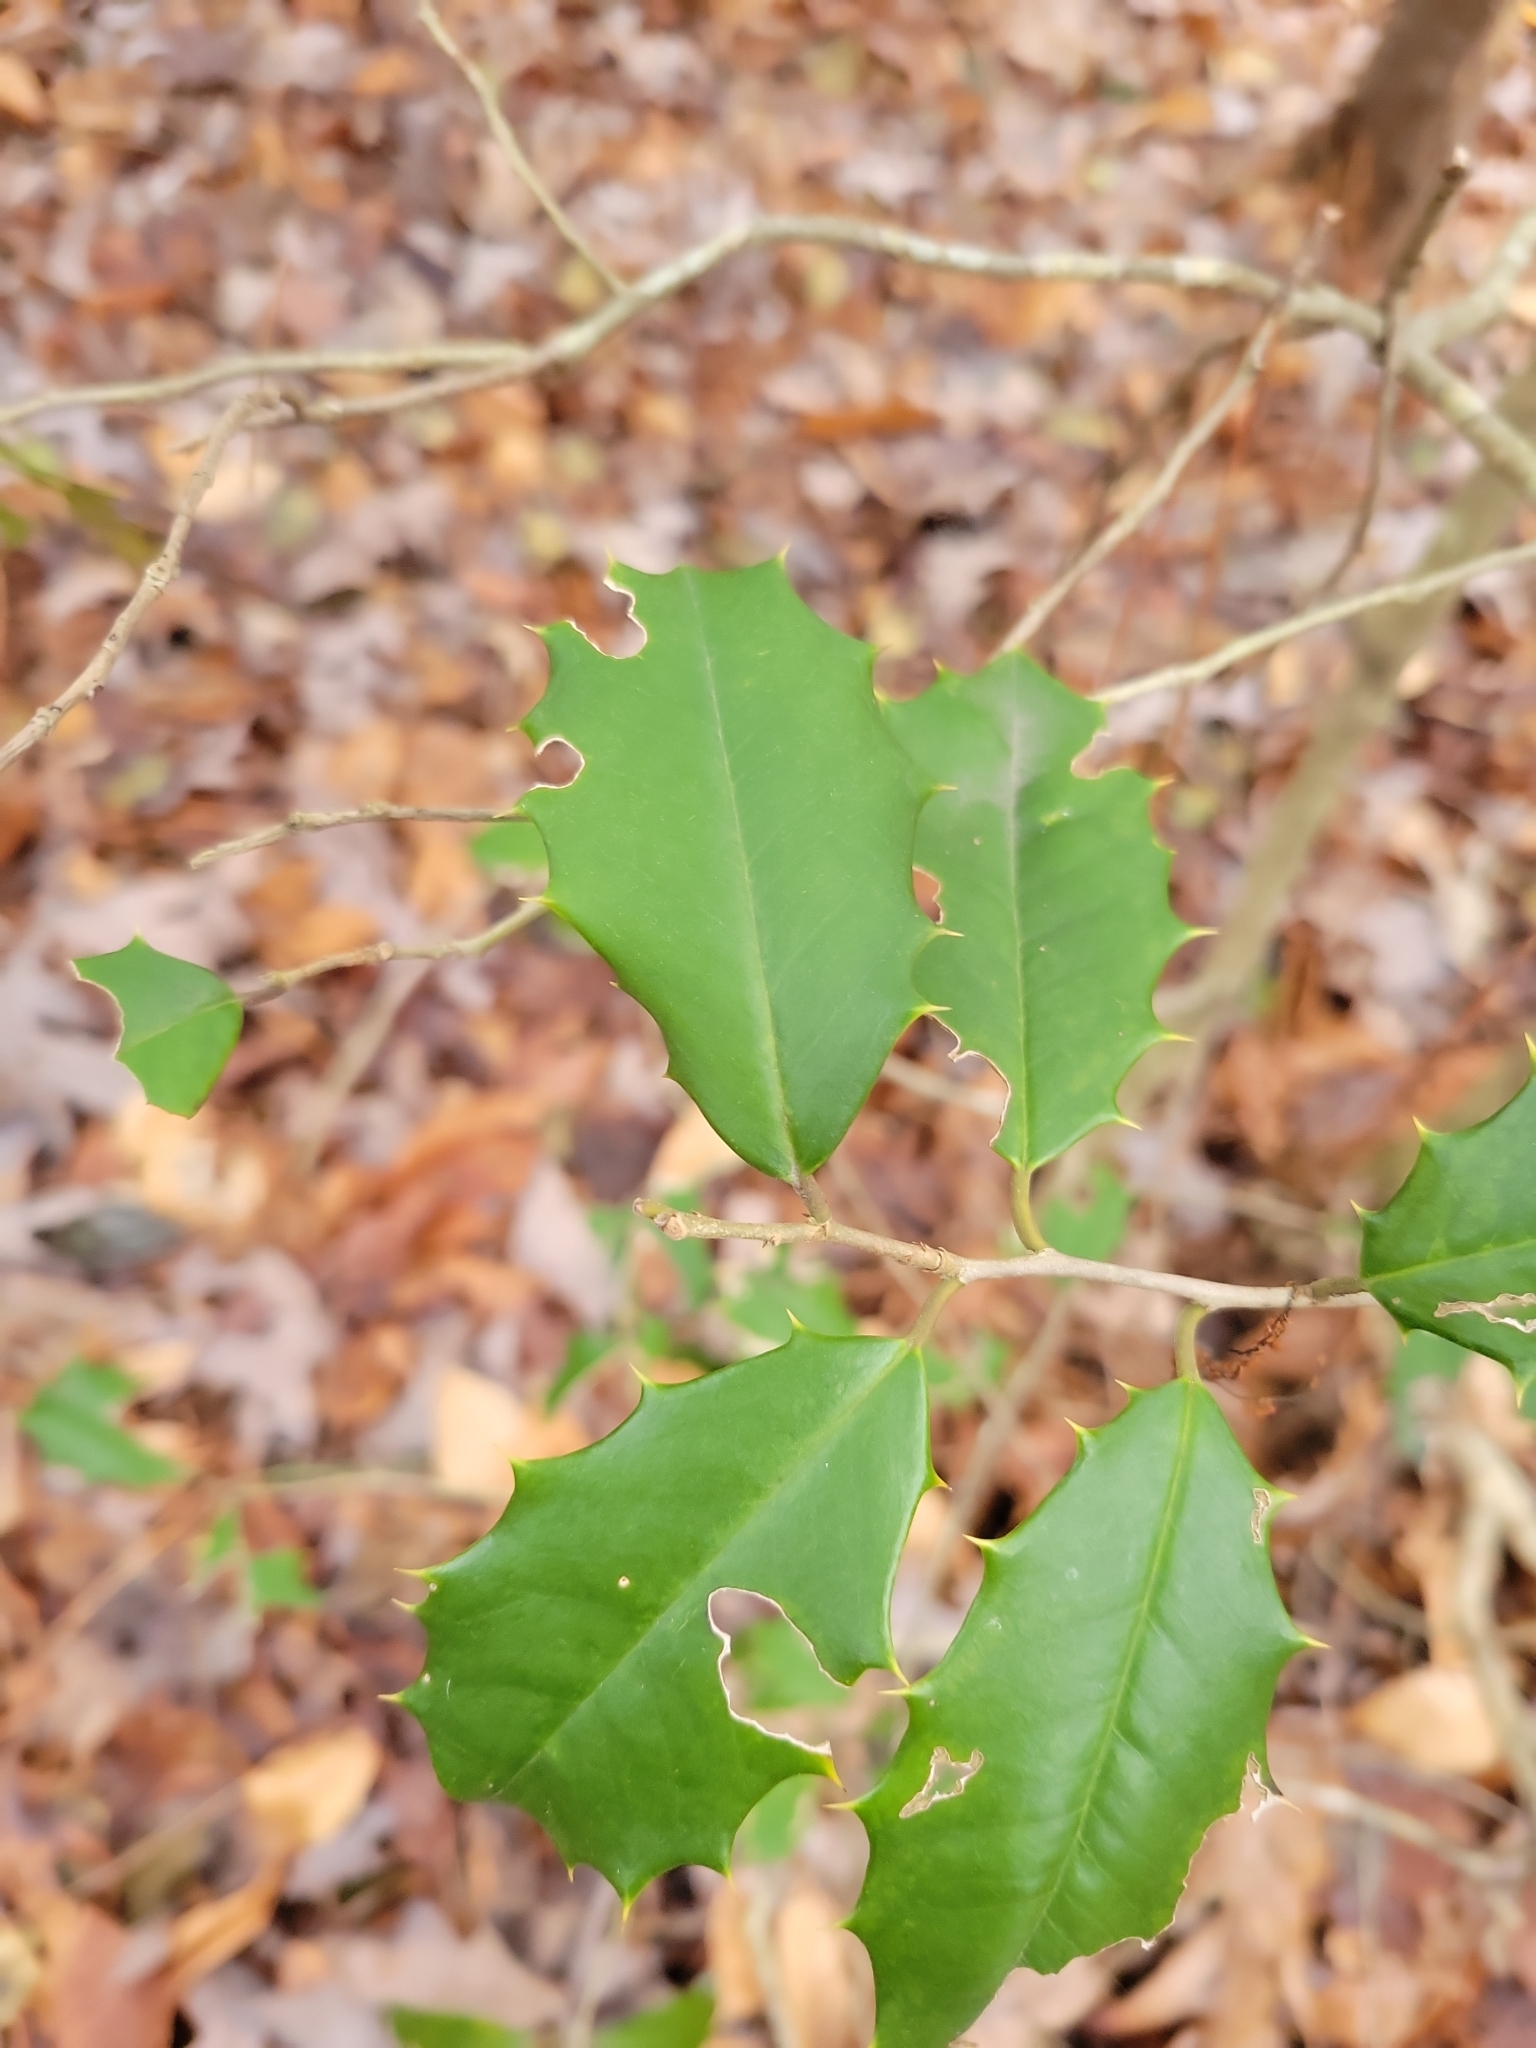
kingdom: Plantae
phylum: Tracheophyta
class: Magnoliopsida
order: Aquifoliales
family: Aquifoliaceae
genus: Ilex
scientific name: Ilex opaca
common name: American holly
